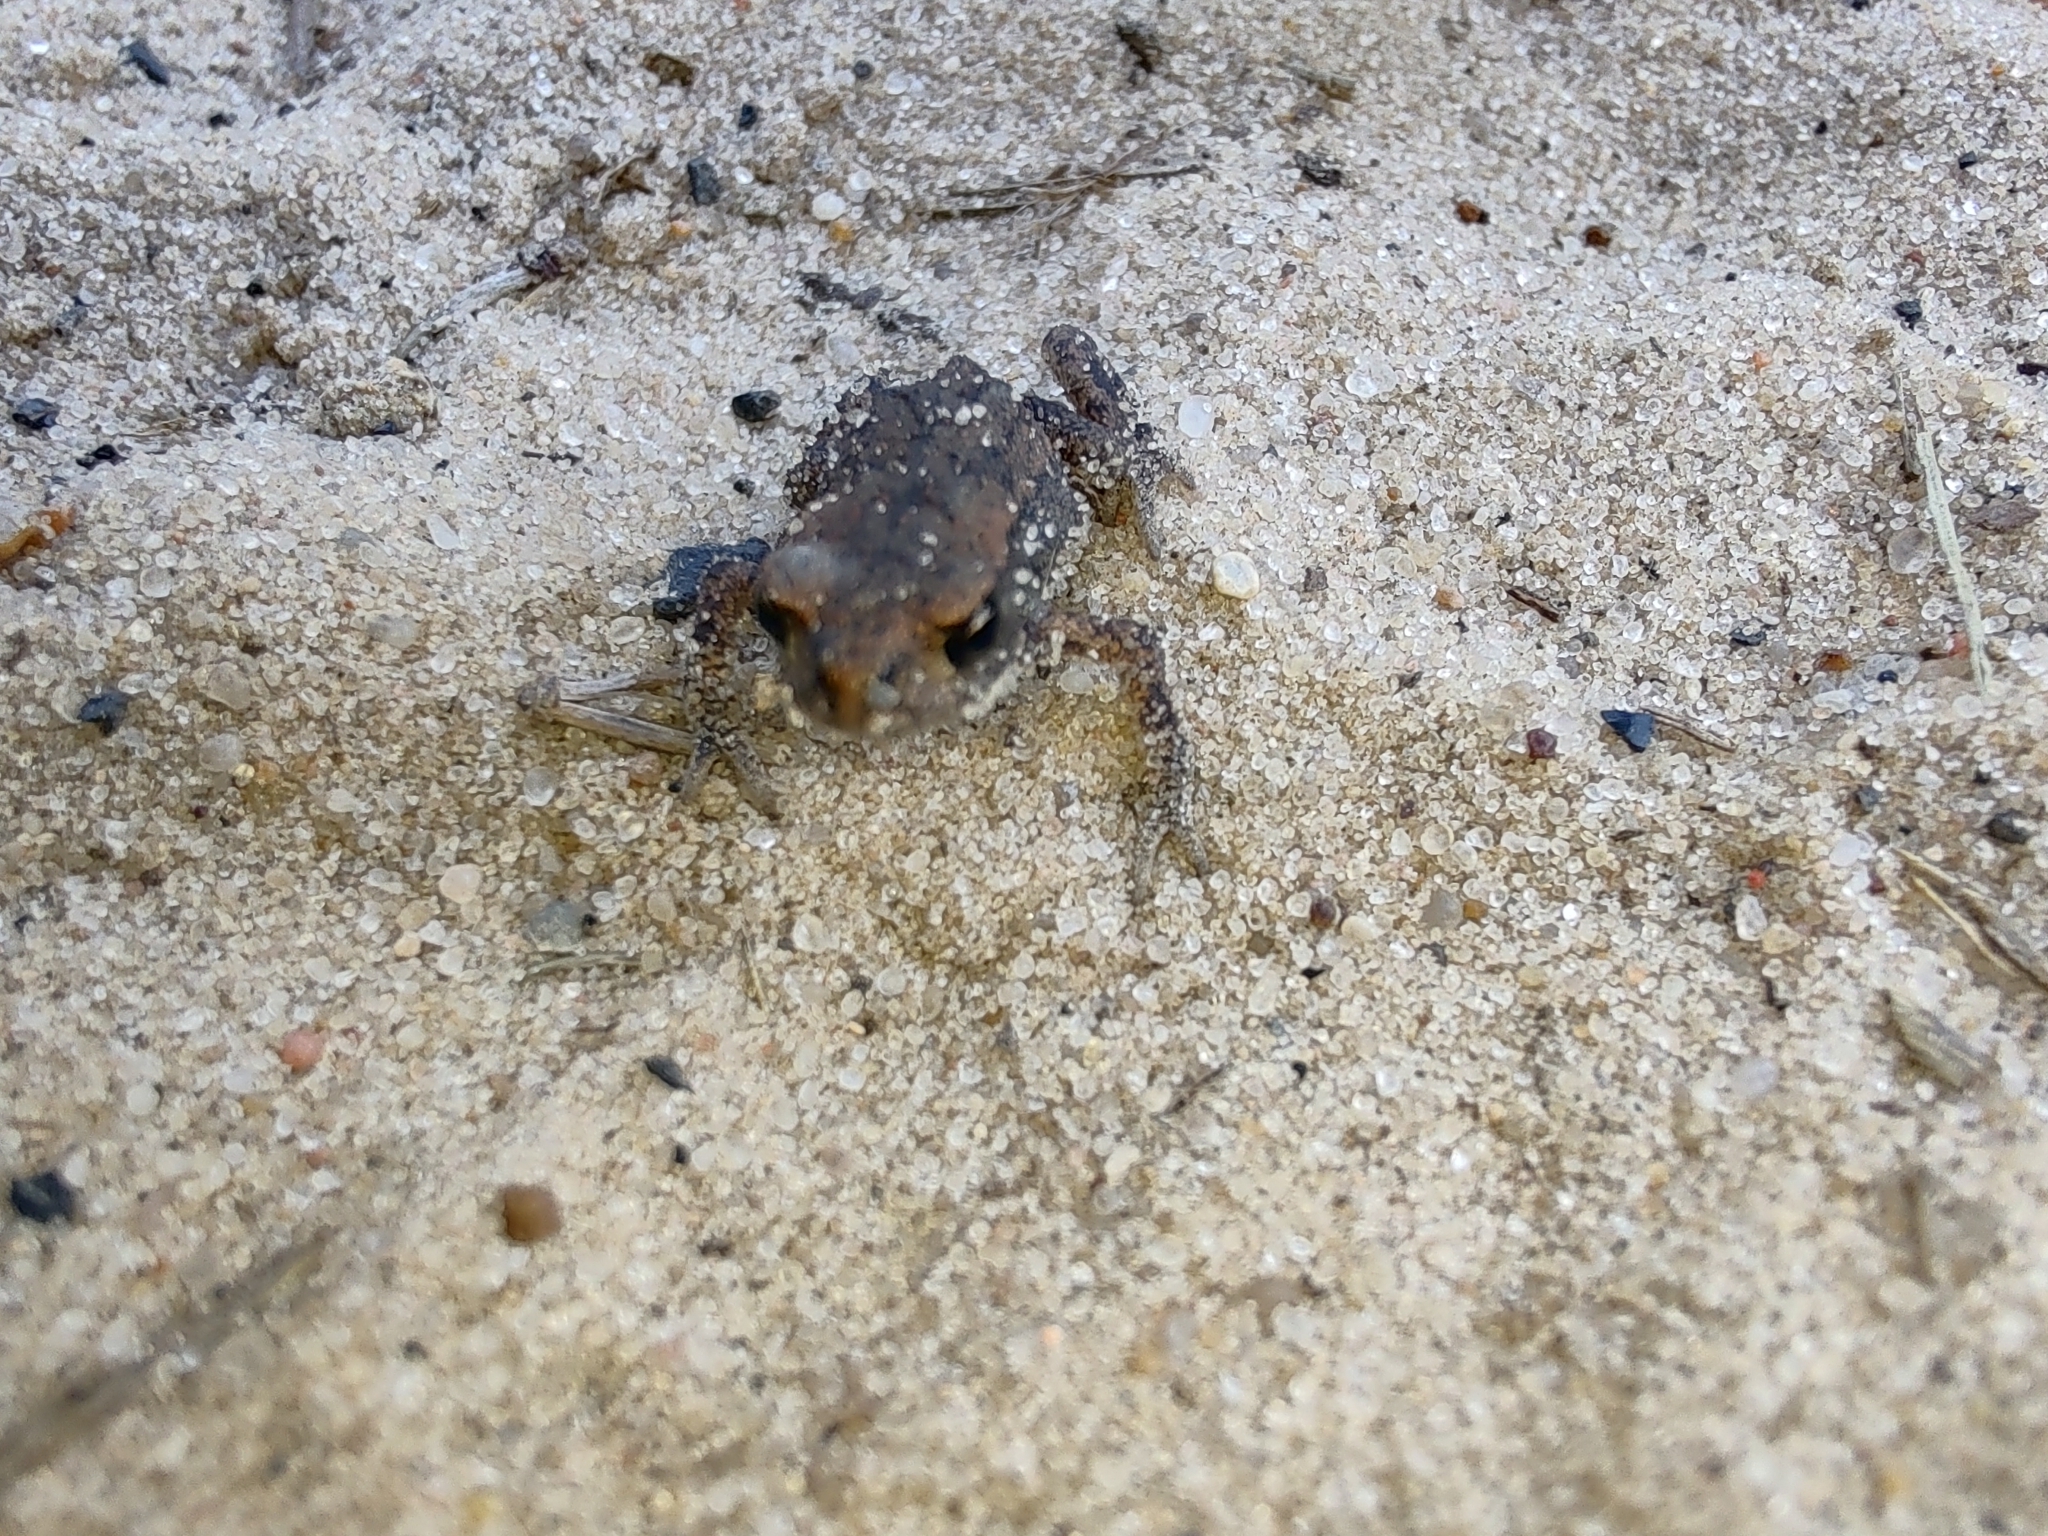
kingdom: Animalia
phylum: Chordata
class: Amphibia
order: Anura
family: Bufonidae
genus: Bufo
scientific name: Bufo bufo
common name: Common toad
